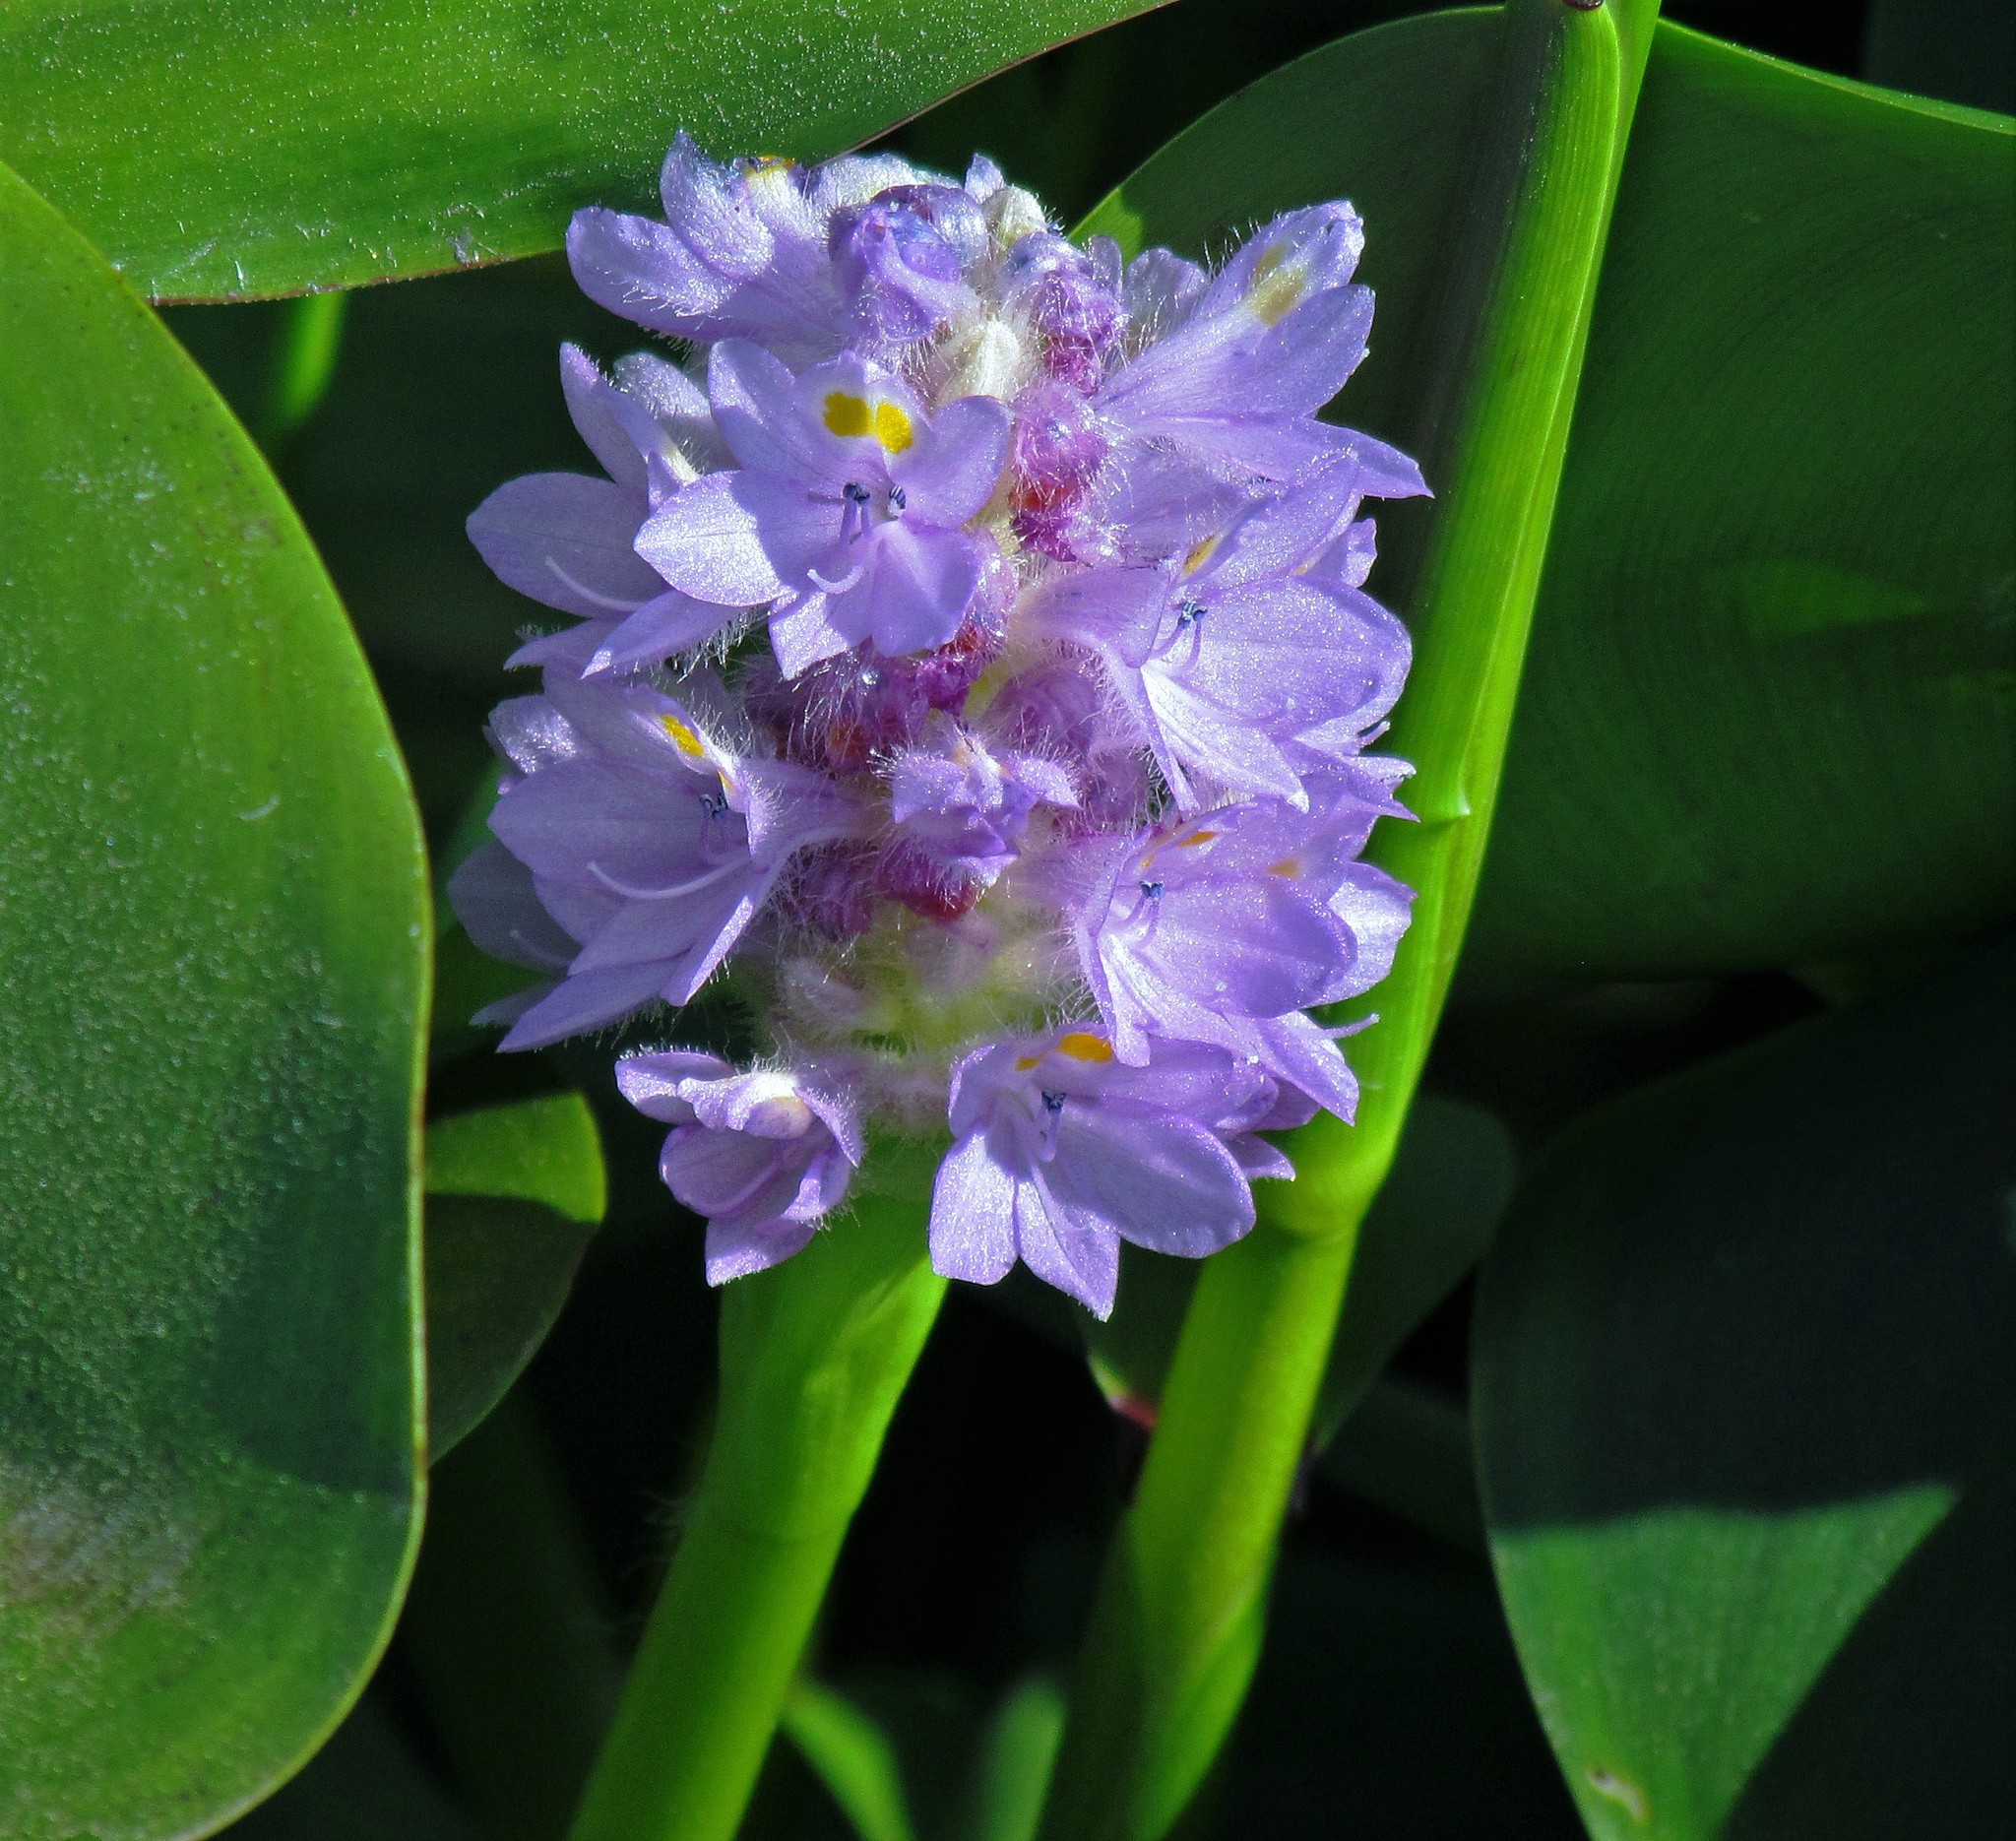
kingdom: Plantae
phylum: Tracheophyta
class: Liliopsida
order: Commelinales
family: Pontederiaceae
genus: Pontederia
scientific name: Pontederia rotundifolia
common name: Tropical pickerel-weed
